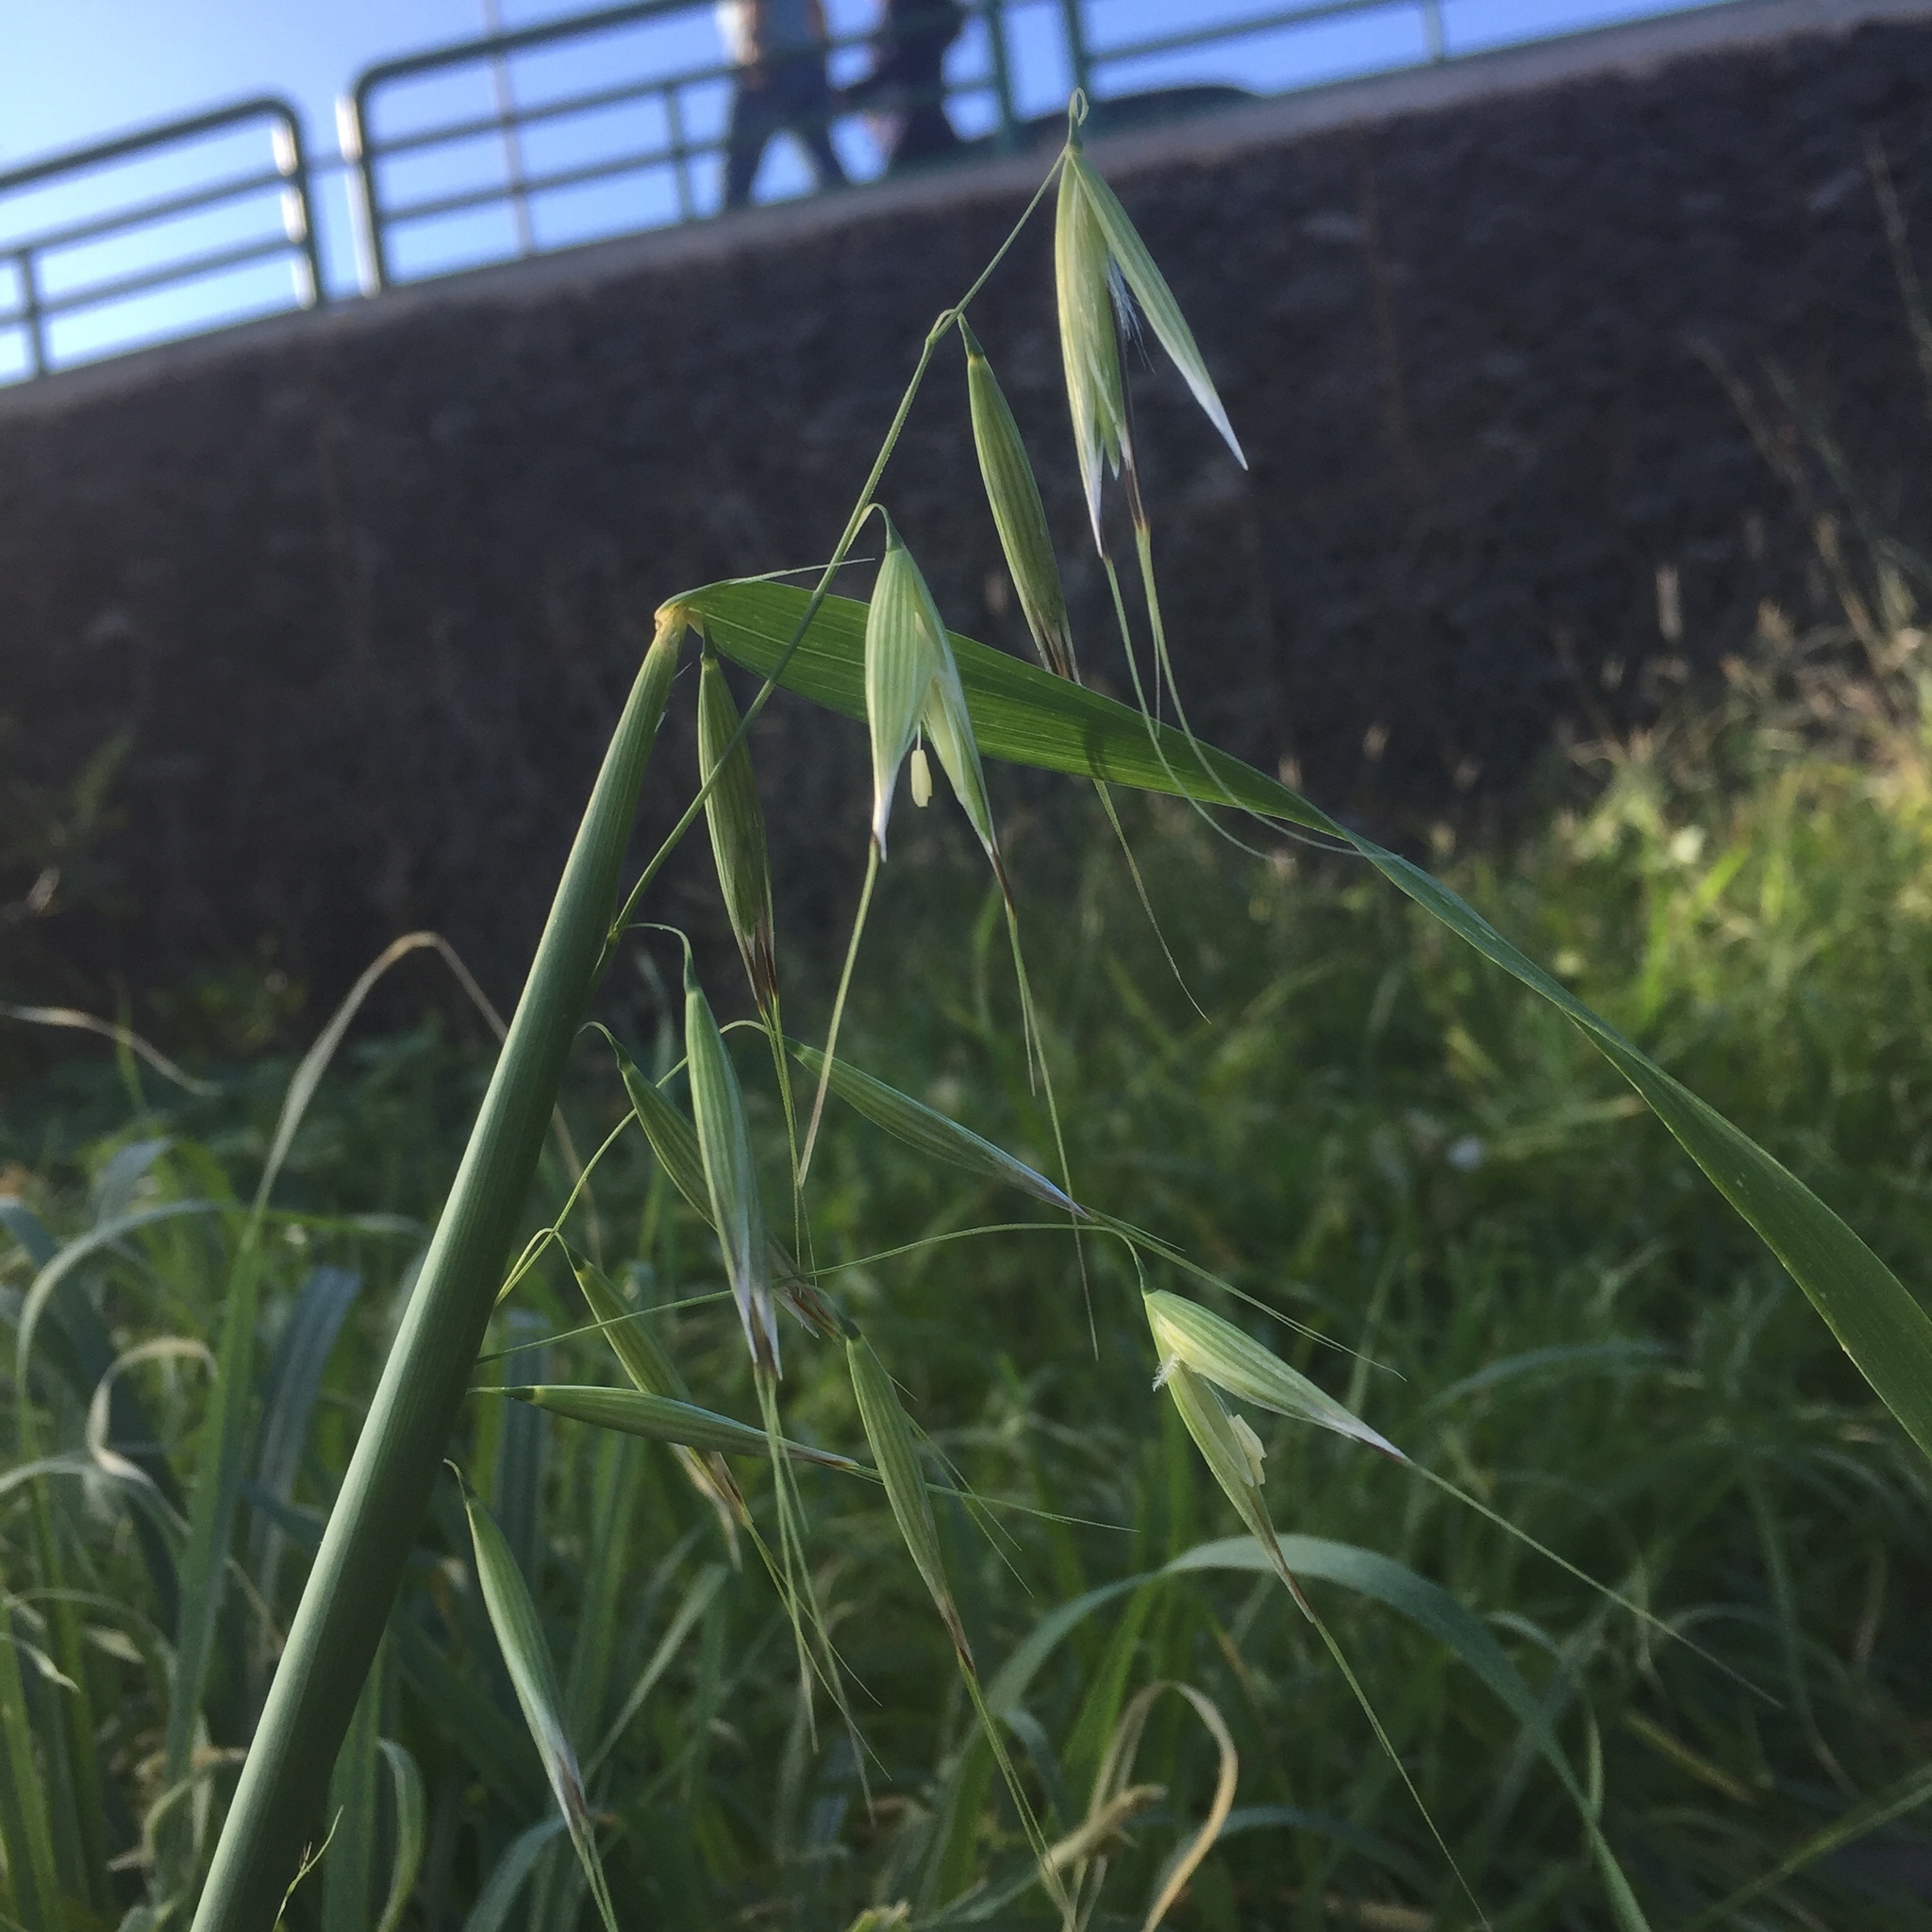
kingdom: Plantae
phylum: Tracheophyta
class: Liliopsida
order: Poales
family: Poaceae
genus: Avena
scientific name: Avena fatua
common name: Wild oat
